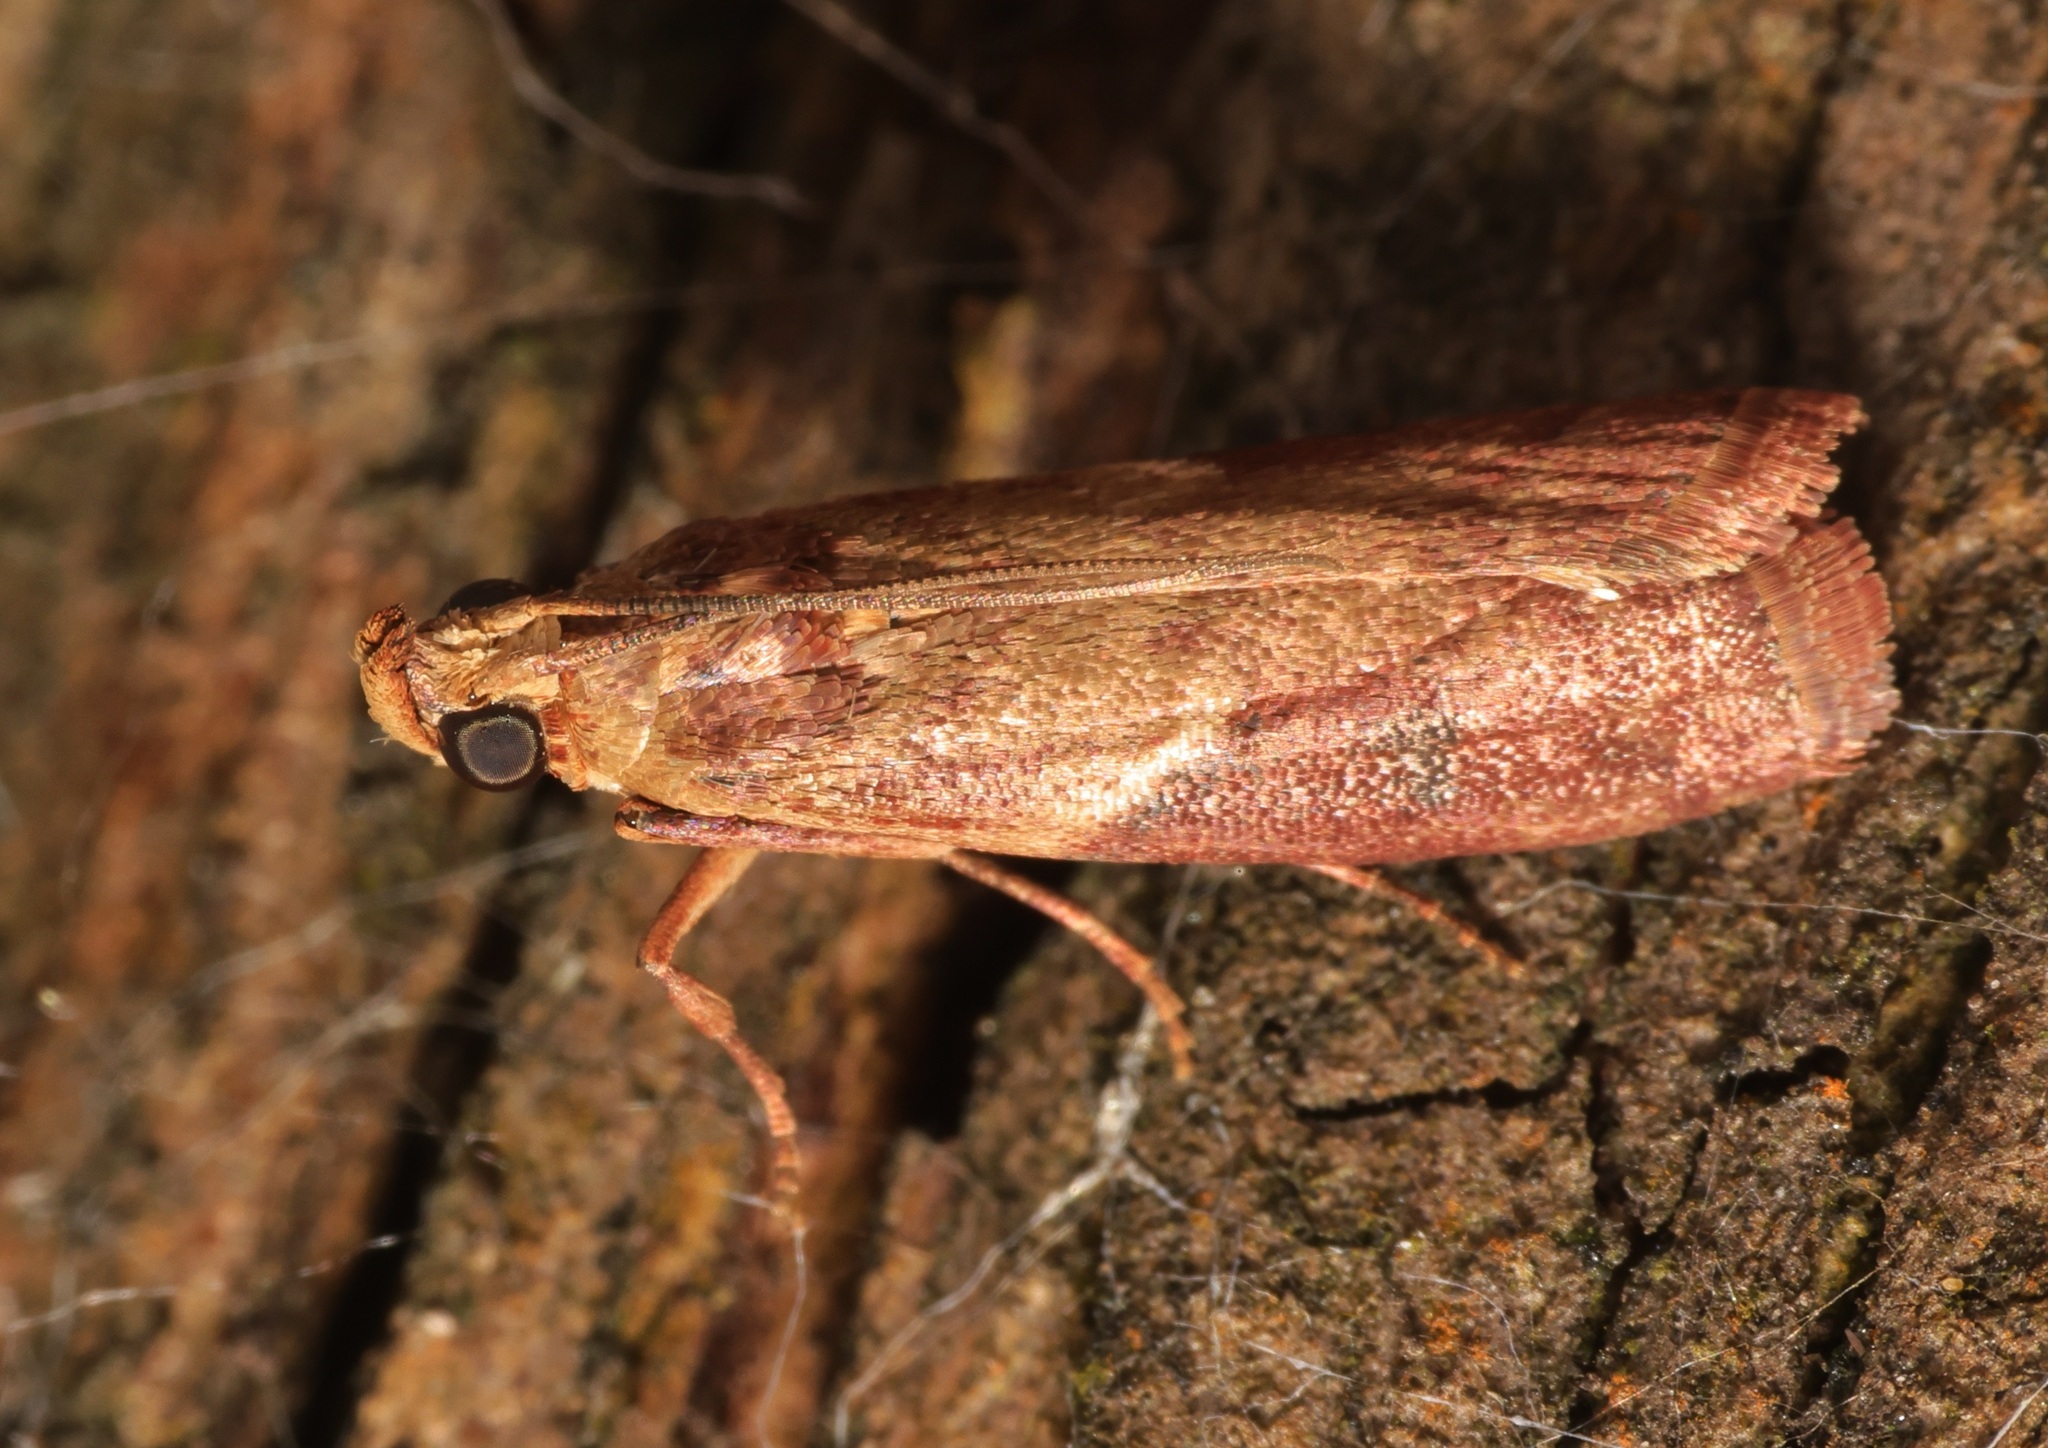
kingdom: Animalia
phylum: Arthropoda
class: Insecta
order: Lepidoptera
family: Pyralidae
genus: Volobilis
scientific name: Volobilis biplaga
